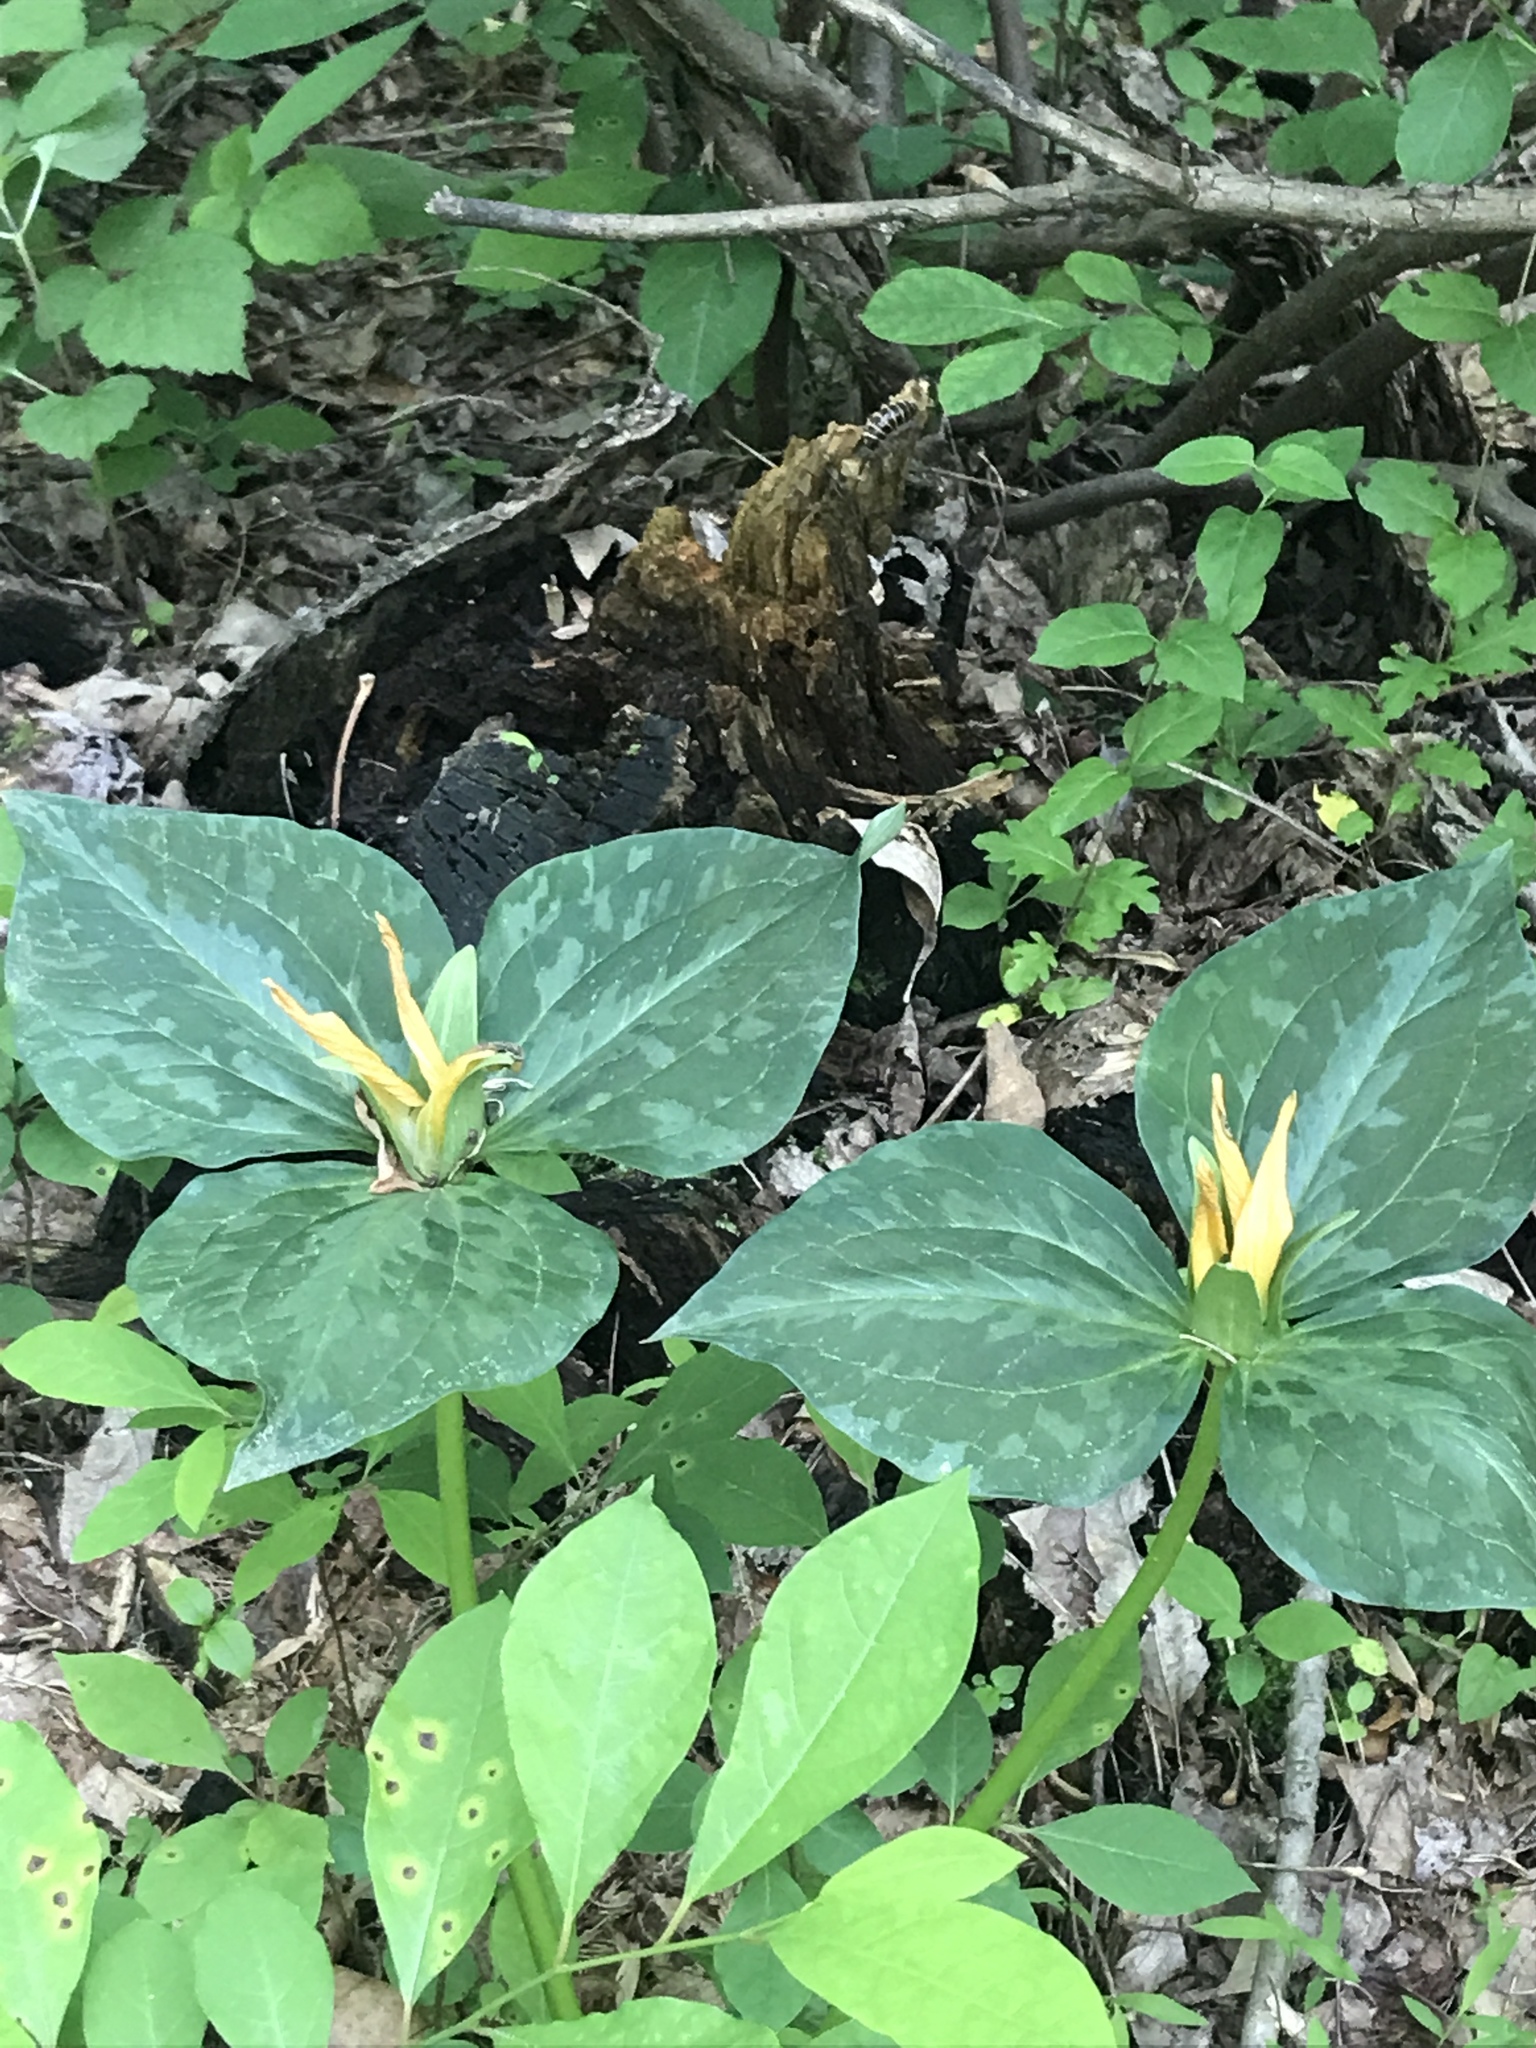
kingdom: Plantae
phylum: Tracheophyta
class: Liliopsida
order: Liliales
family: Melanthiaceae
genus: Trillium
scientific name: Trillium luteum
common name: Wax trillium
